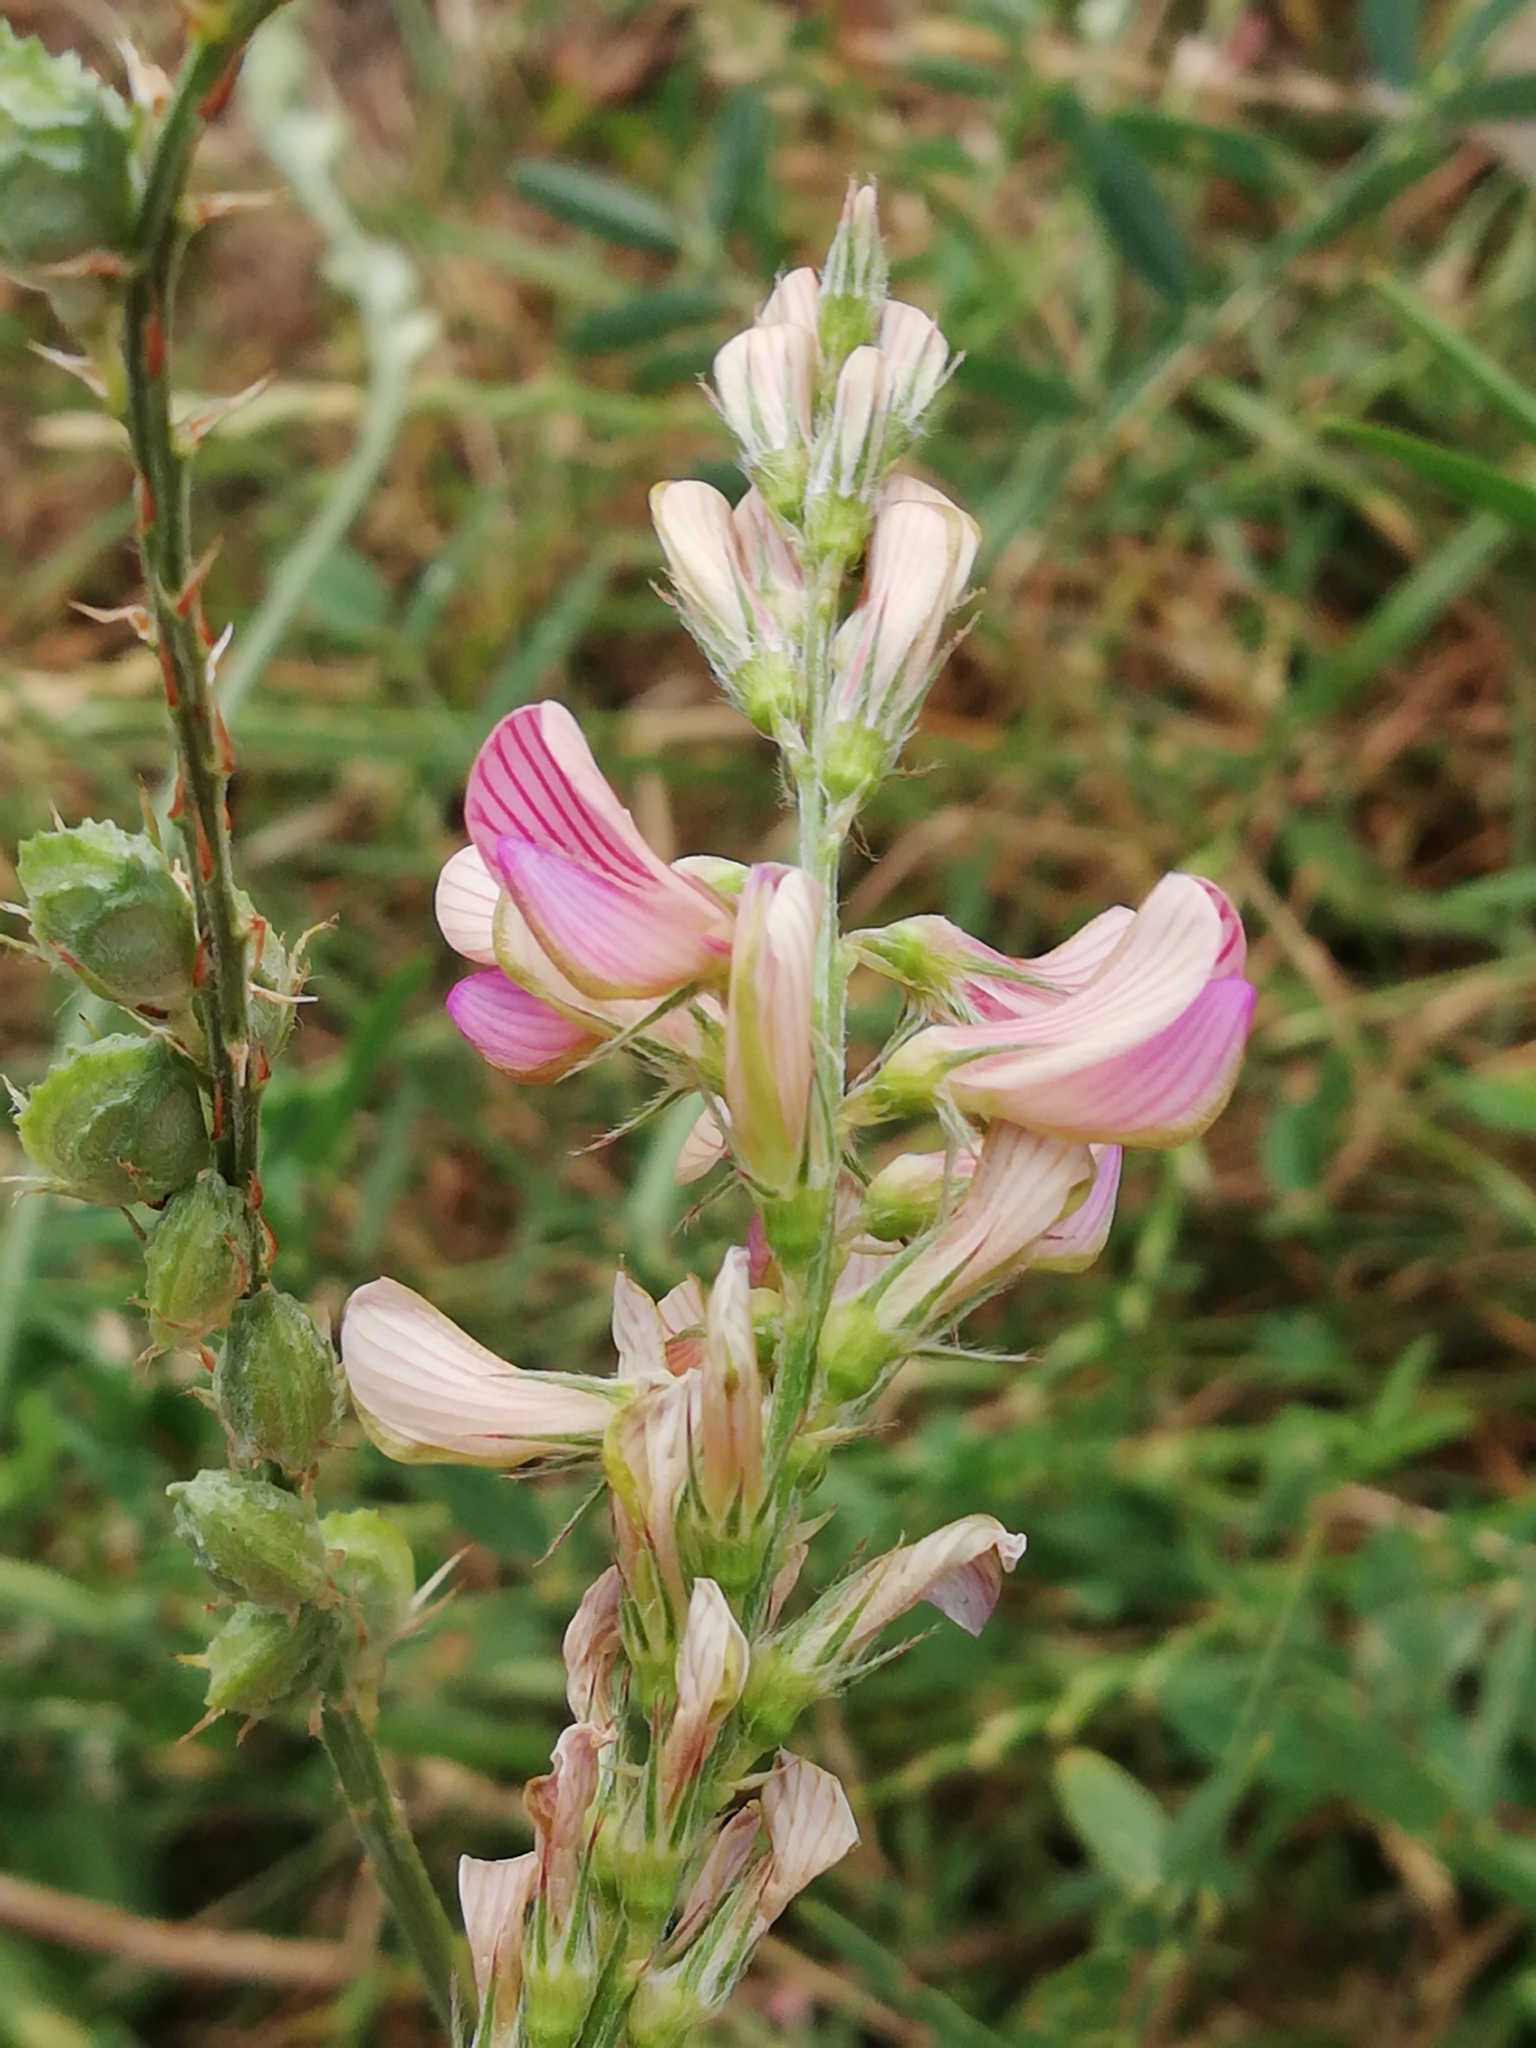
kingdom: Plantae
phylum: Tracheophyta
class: Magnoliopsida
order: Fabales
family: Fabaceae
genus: Onobrychis
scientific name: Onobrychis viciifolia
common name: Sainfoin
